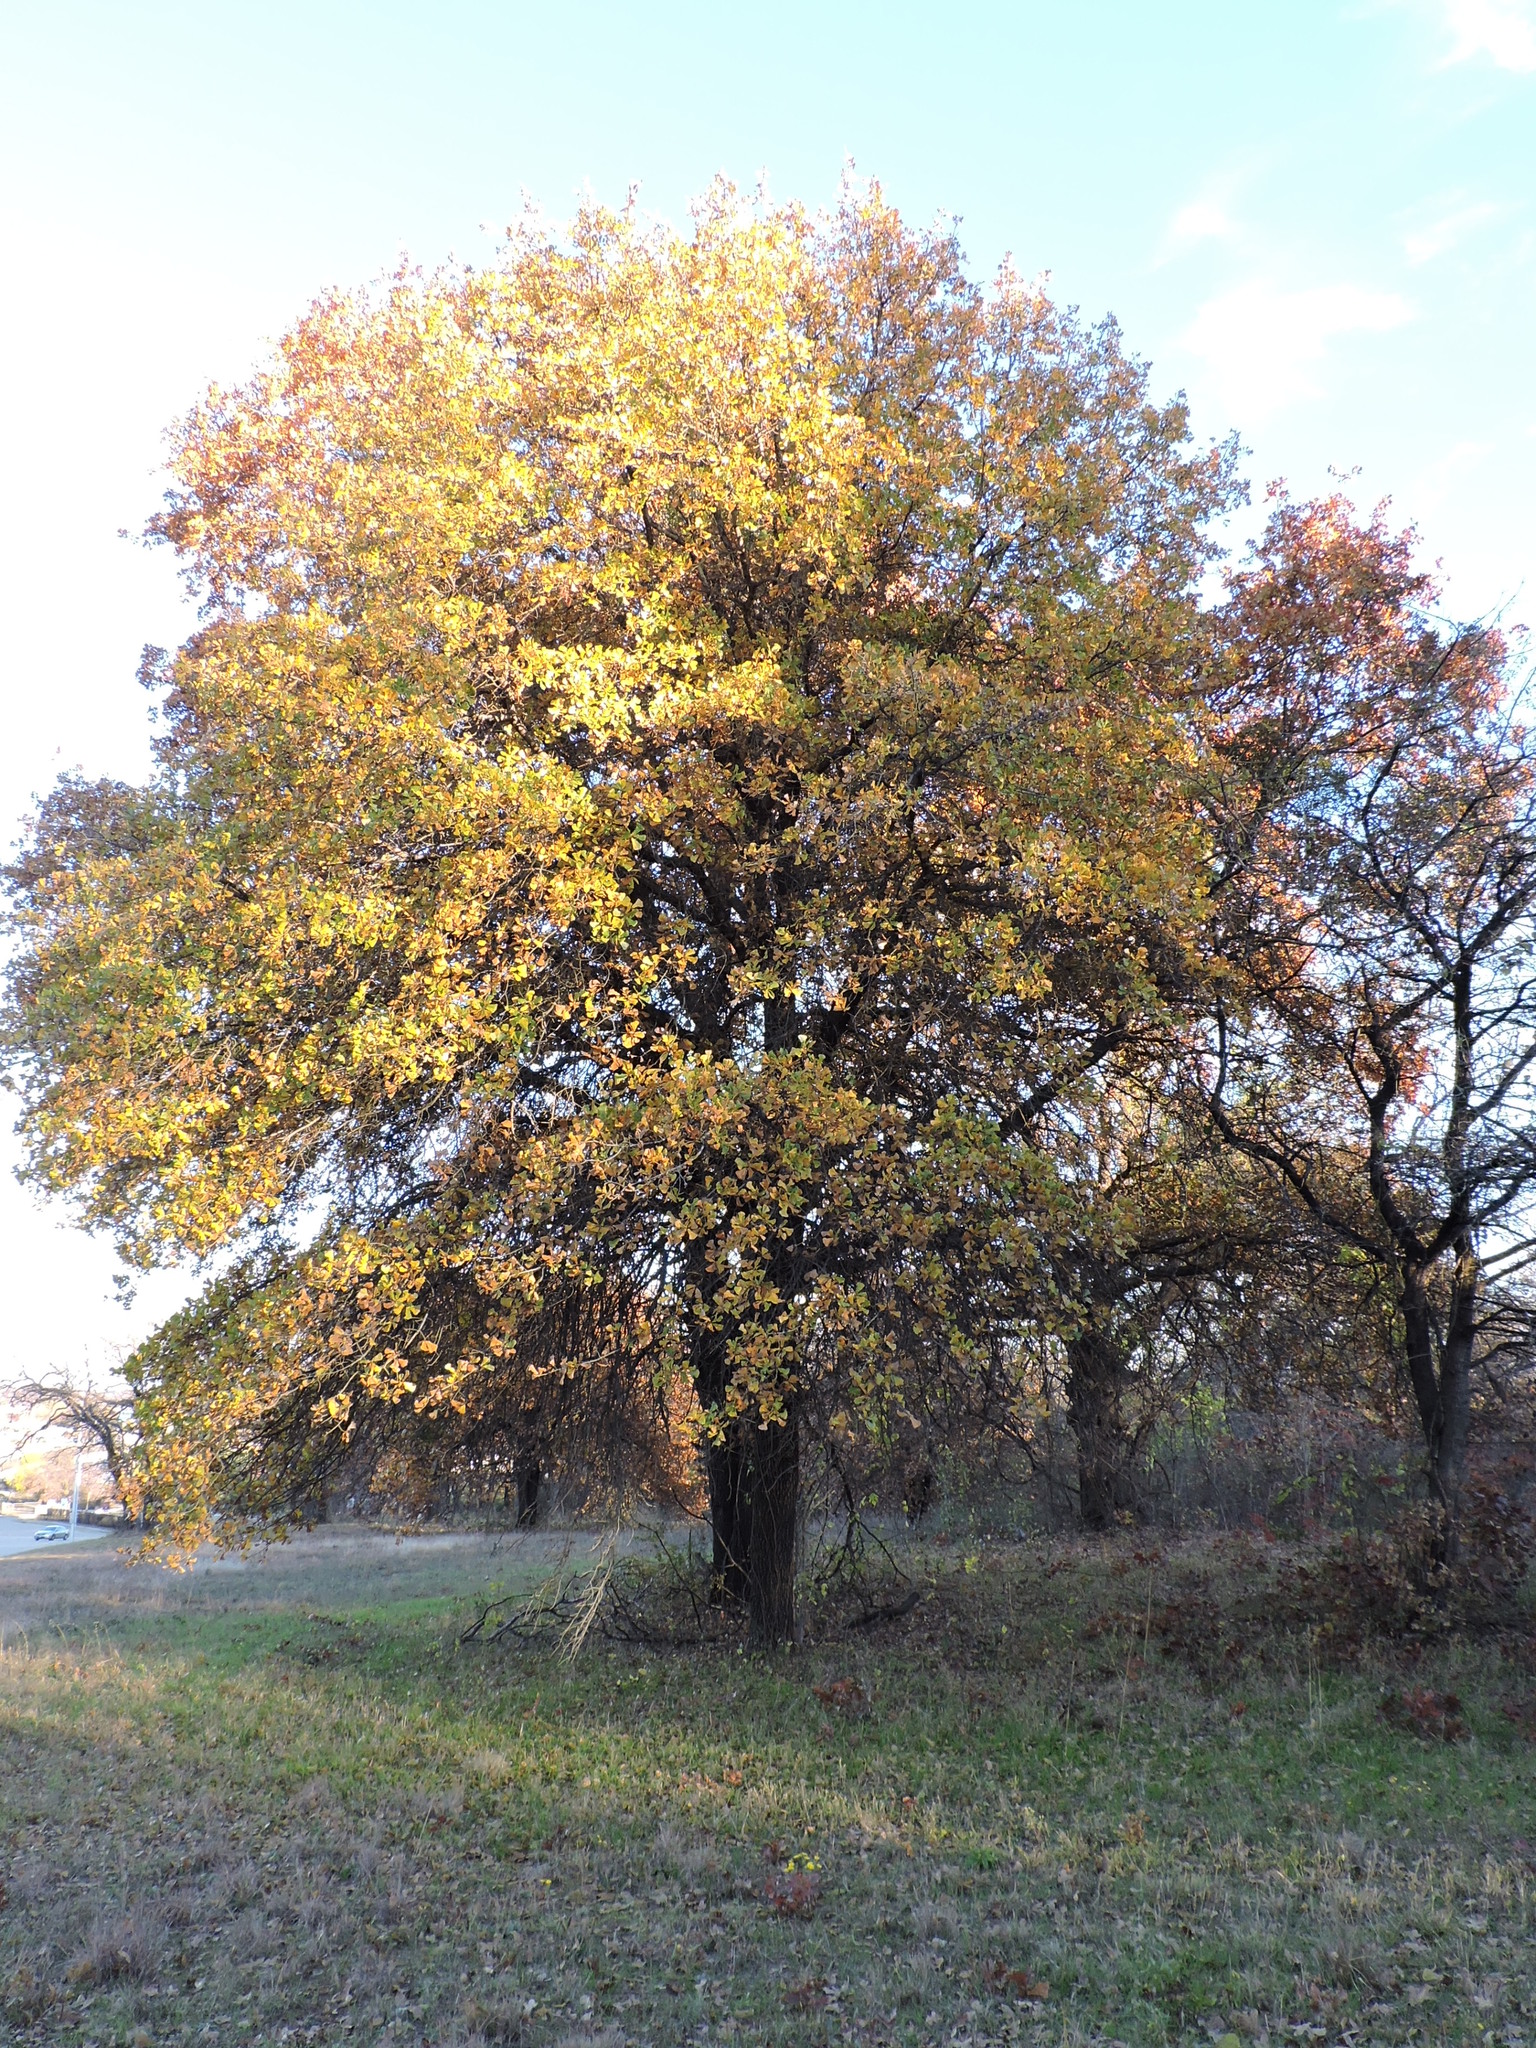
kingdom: Plantae
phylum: Tracheophyta
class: Magnoliopsida
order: Fagales
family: Fagaceae
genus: Quercus
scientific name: Quercus marilandica
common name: Blackjack oak
